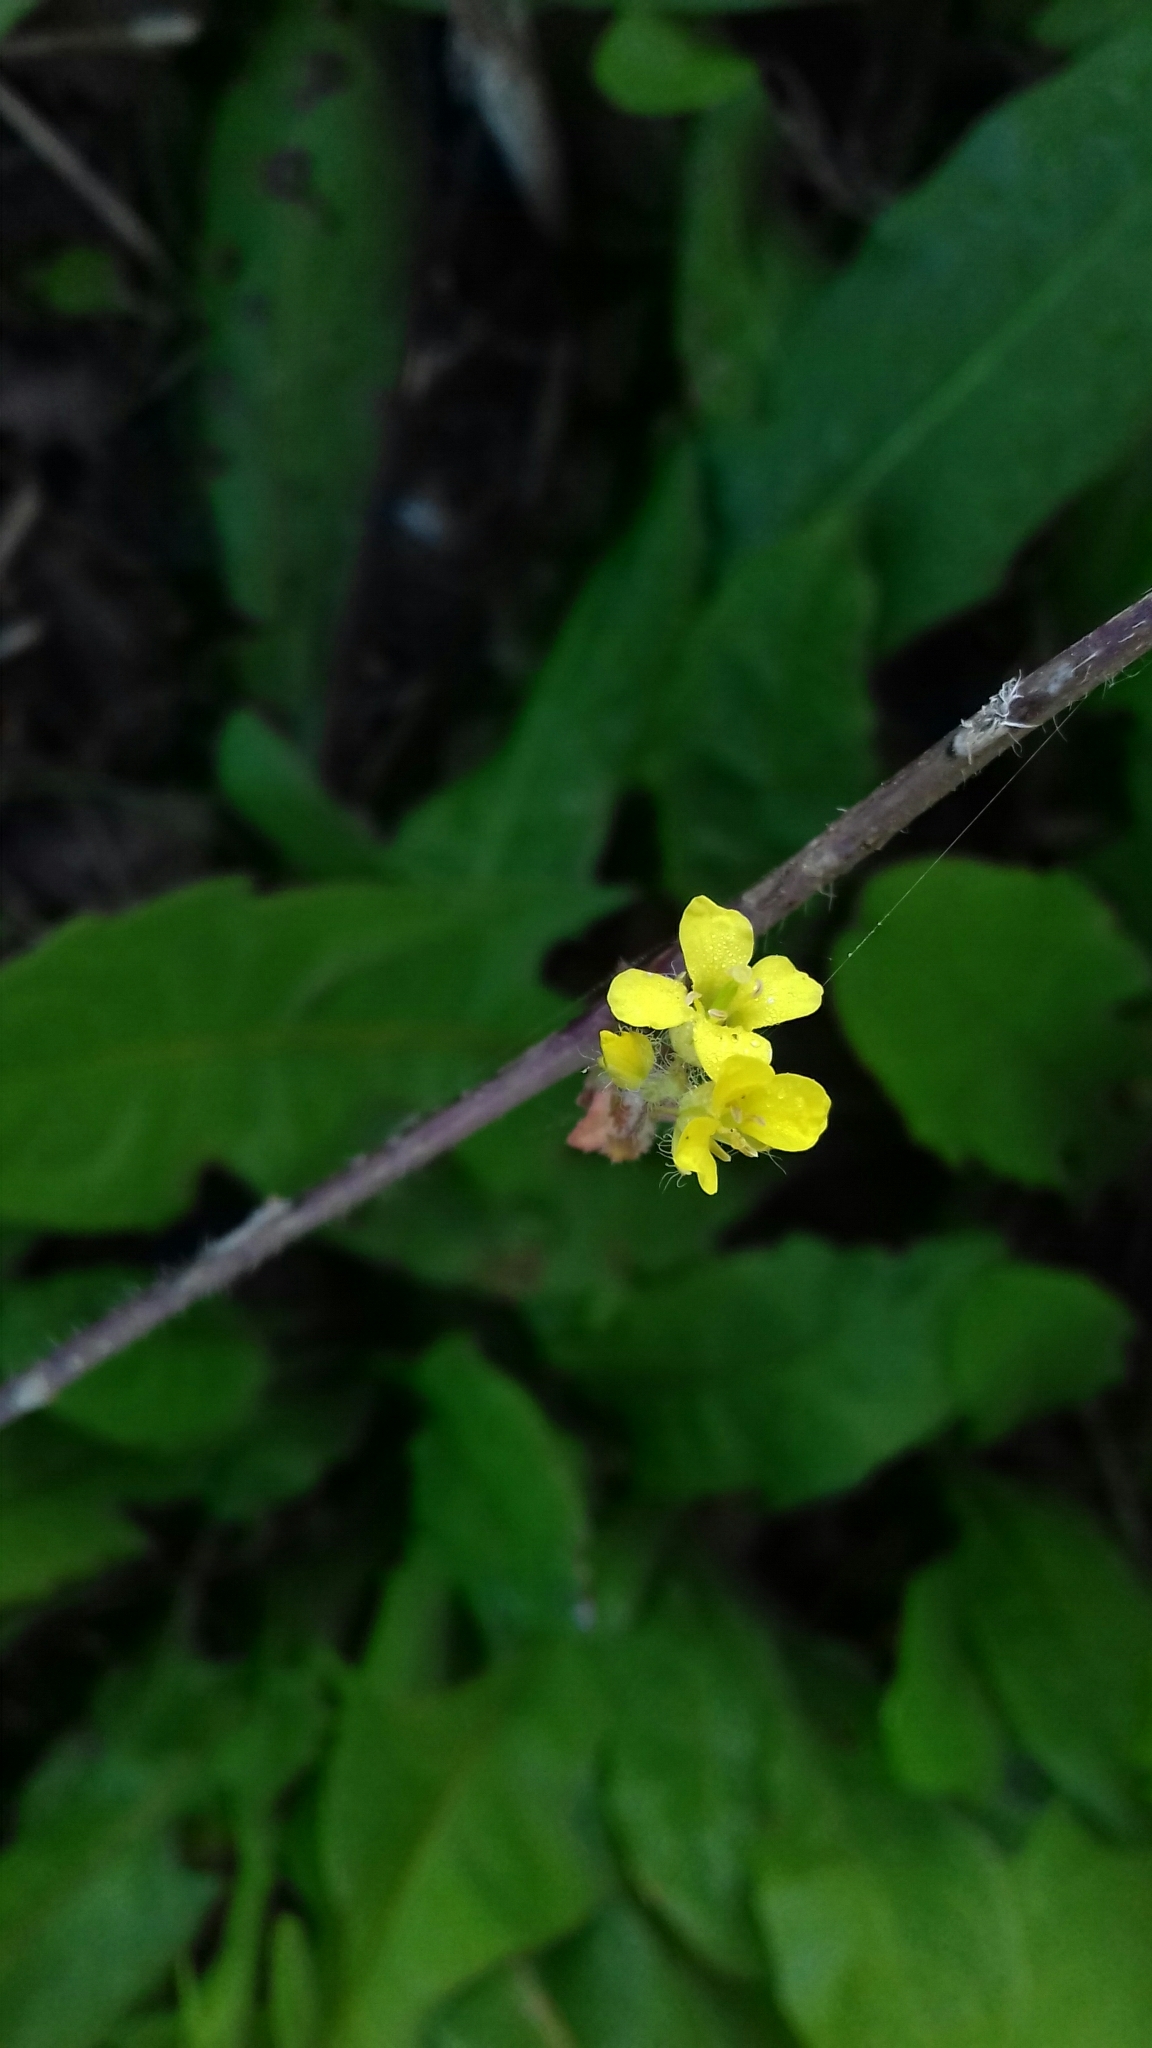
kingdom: Plantae
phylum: Tracheophyta
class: Magnoliopsida
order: Brassicales
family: Brassicaceae
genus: Sisymbrium
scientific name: Sisymbrium loeselii
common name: False london-rocket
